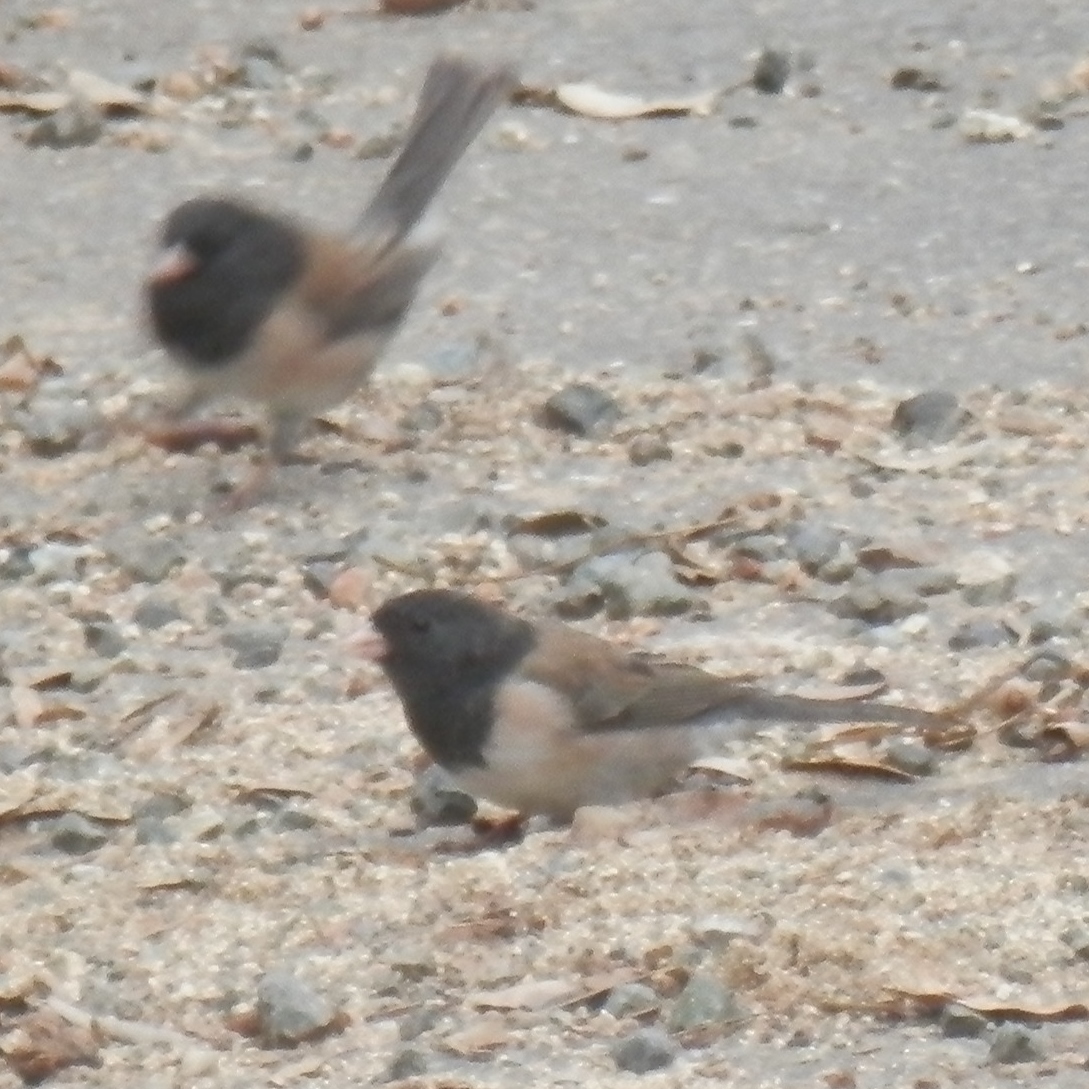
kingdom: Animalia
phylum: Chordata
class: Aves
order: Passeriformes
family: Passerellidae
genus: Junco
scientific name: Junco hyemalis
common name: Dark-eyed junco
